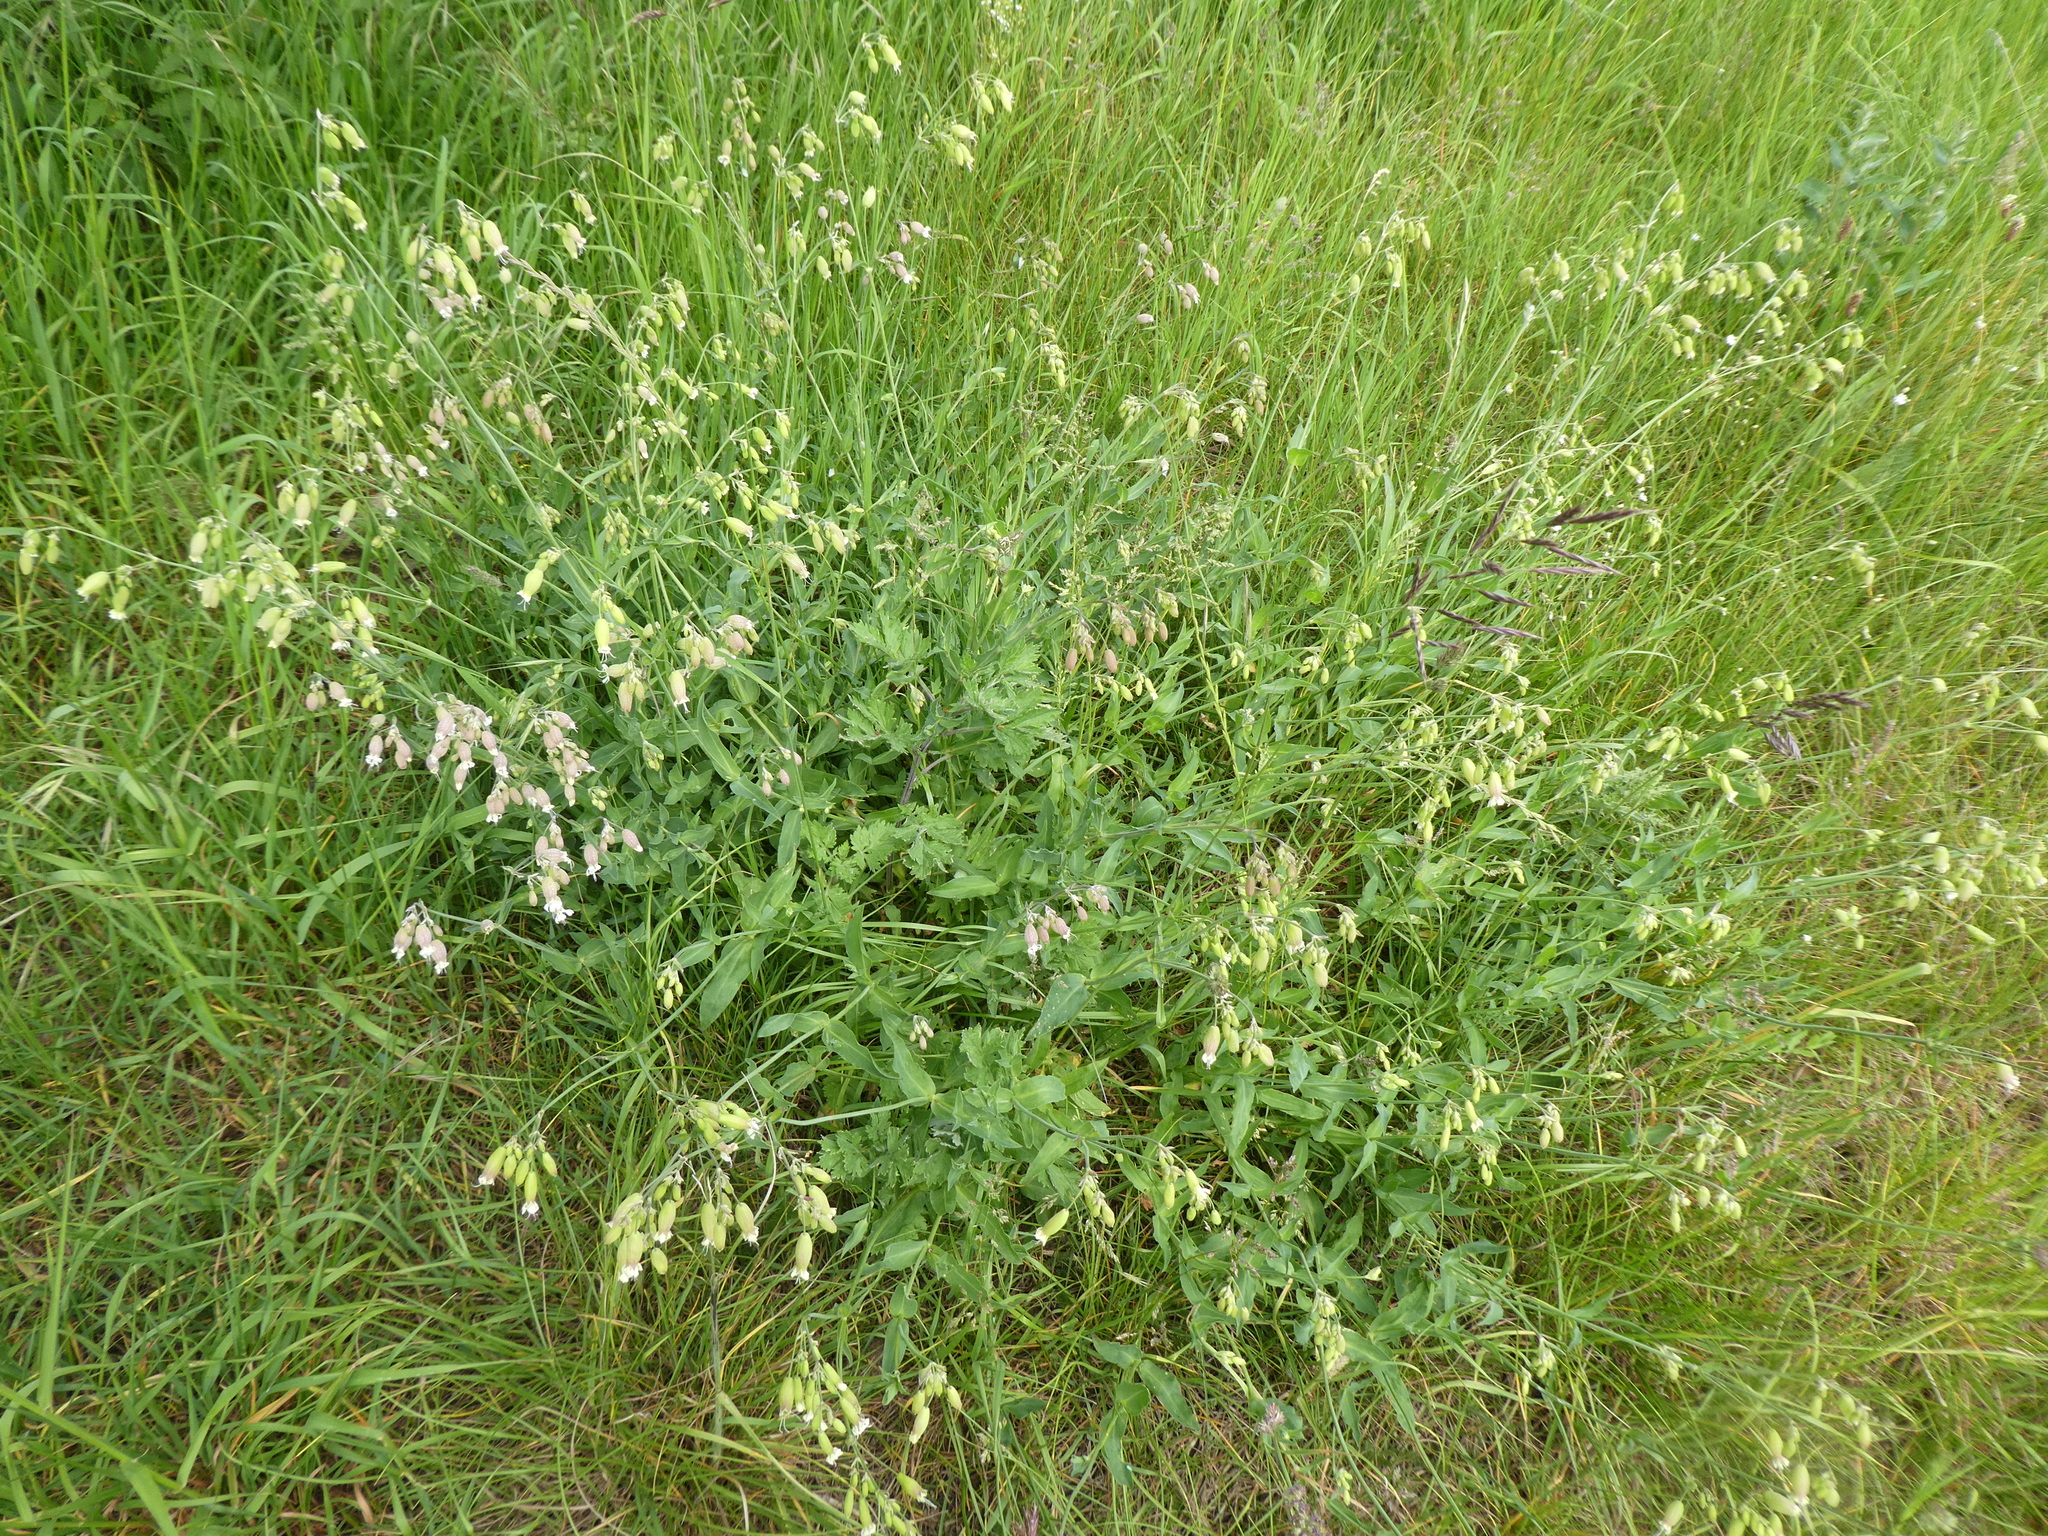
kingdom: Plantae
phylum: Tracheophyta
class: Magnoliopsida
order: Caryophyllales
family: Caryophyllaceae
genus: Silene
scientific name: Silene vulgaris
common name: Bladder campion
